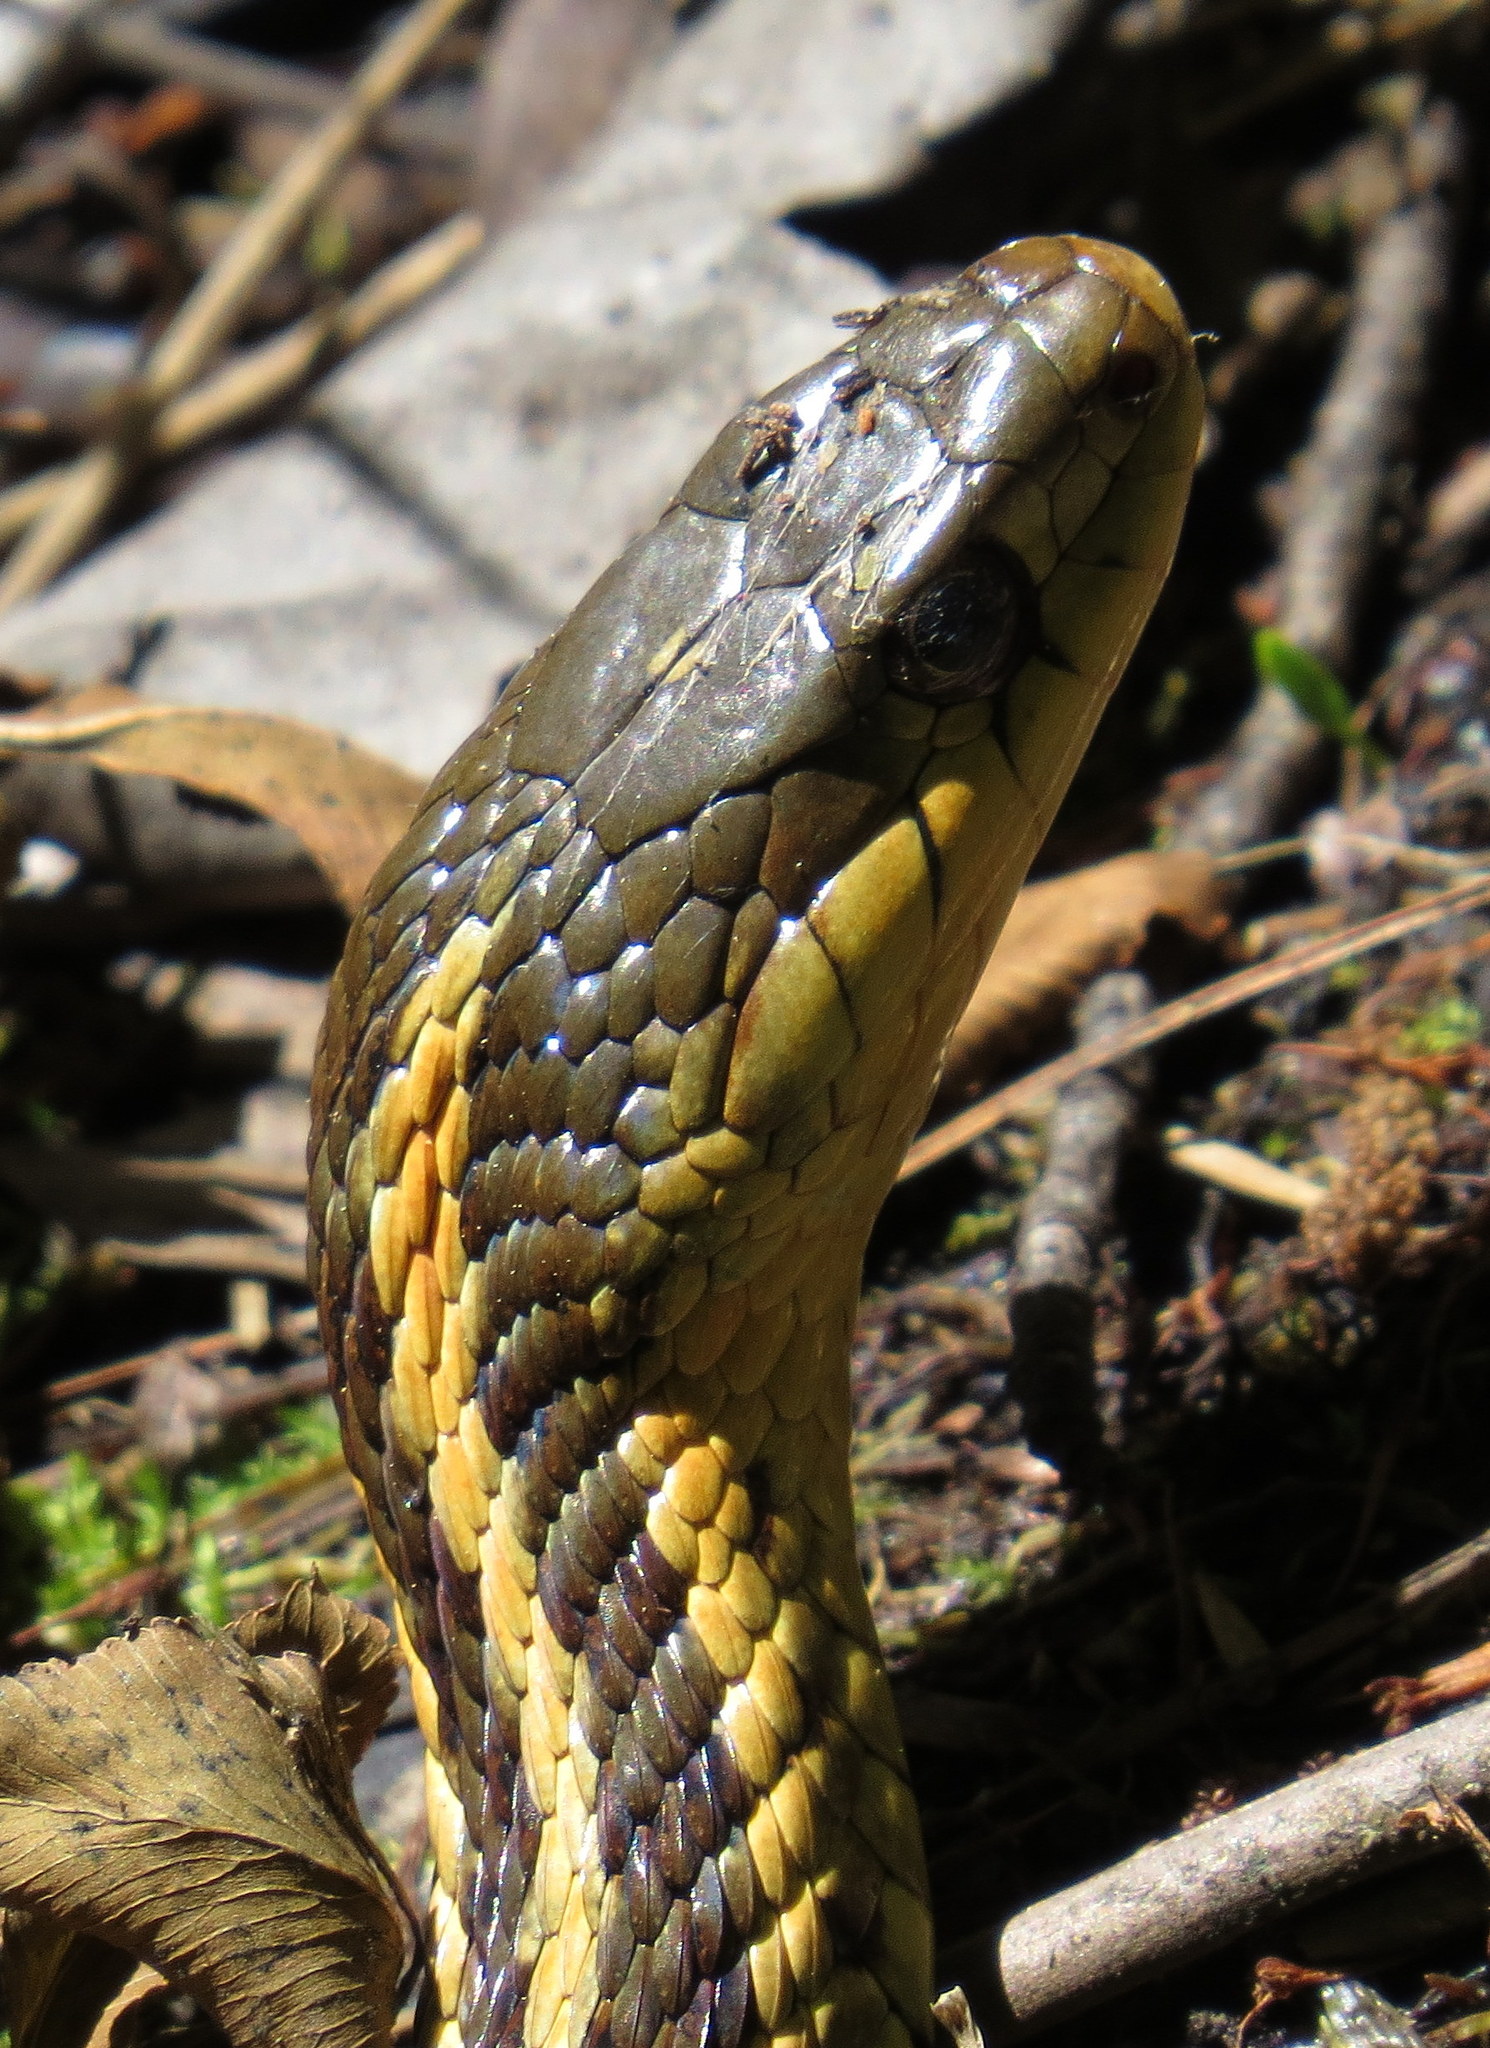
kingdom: Animalia
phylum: Chordata
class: Squamata
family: Colubridae
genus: Thamnophis
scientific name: Thamnophis sirtalis
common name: Common garter snake
